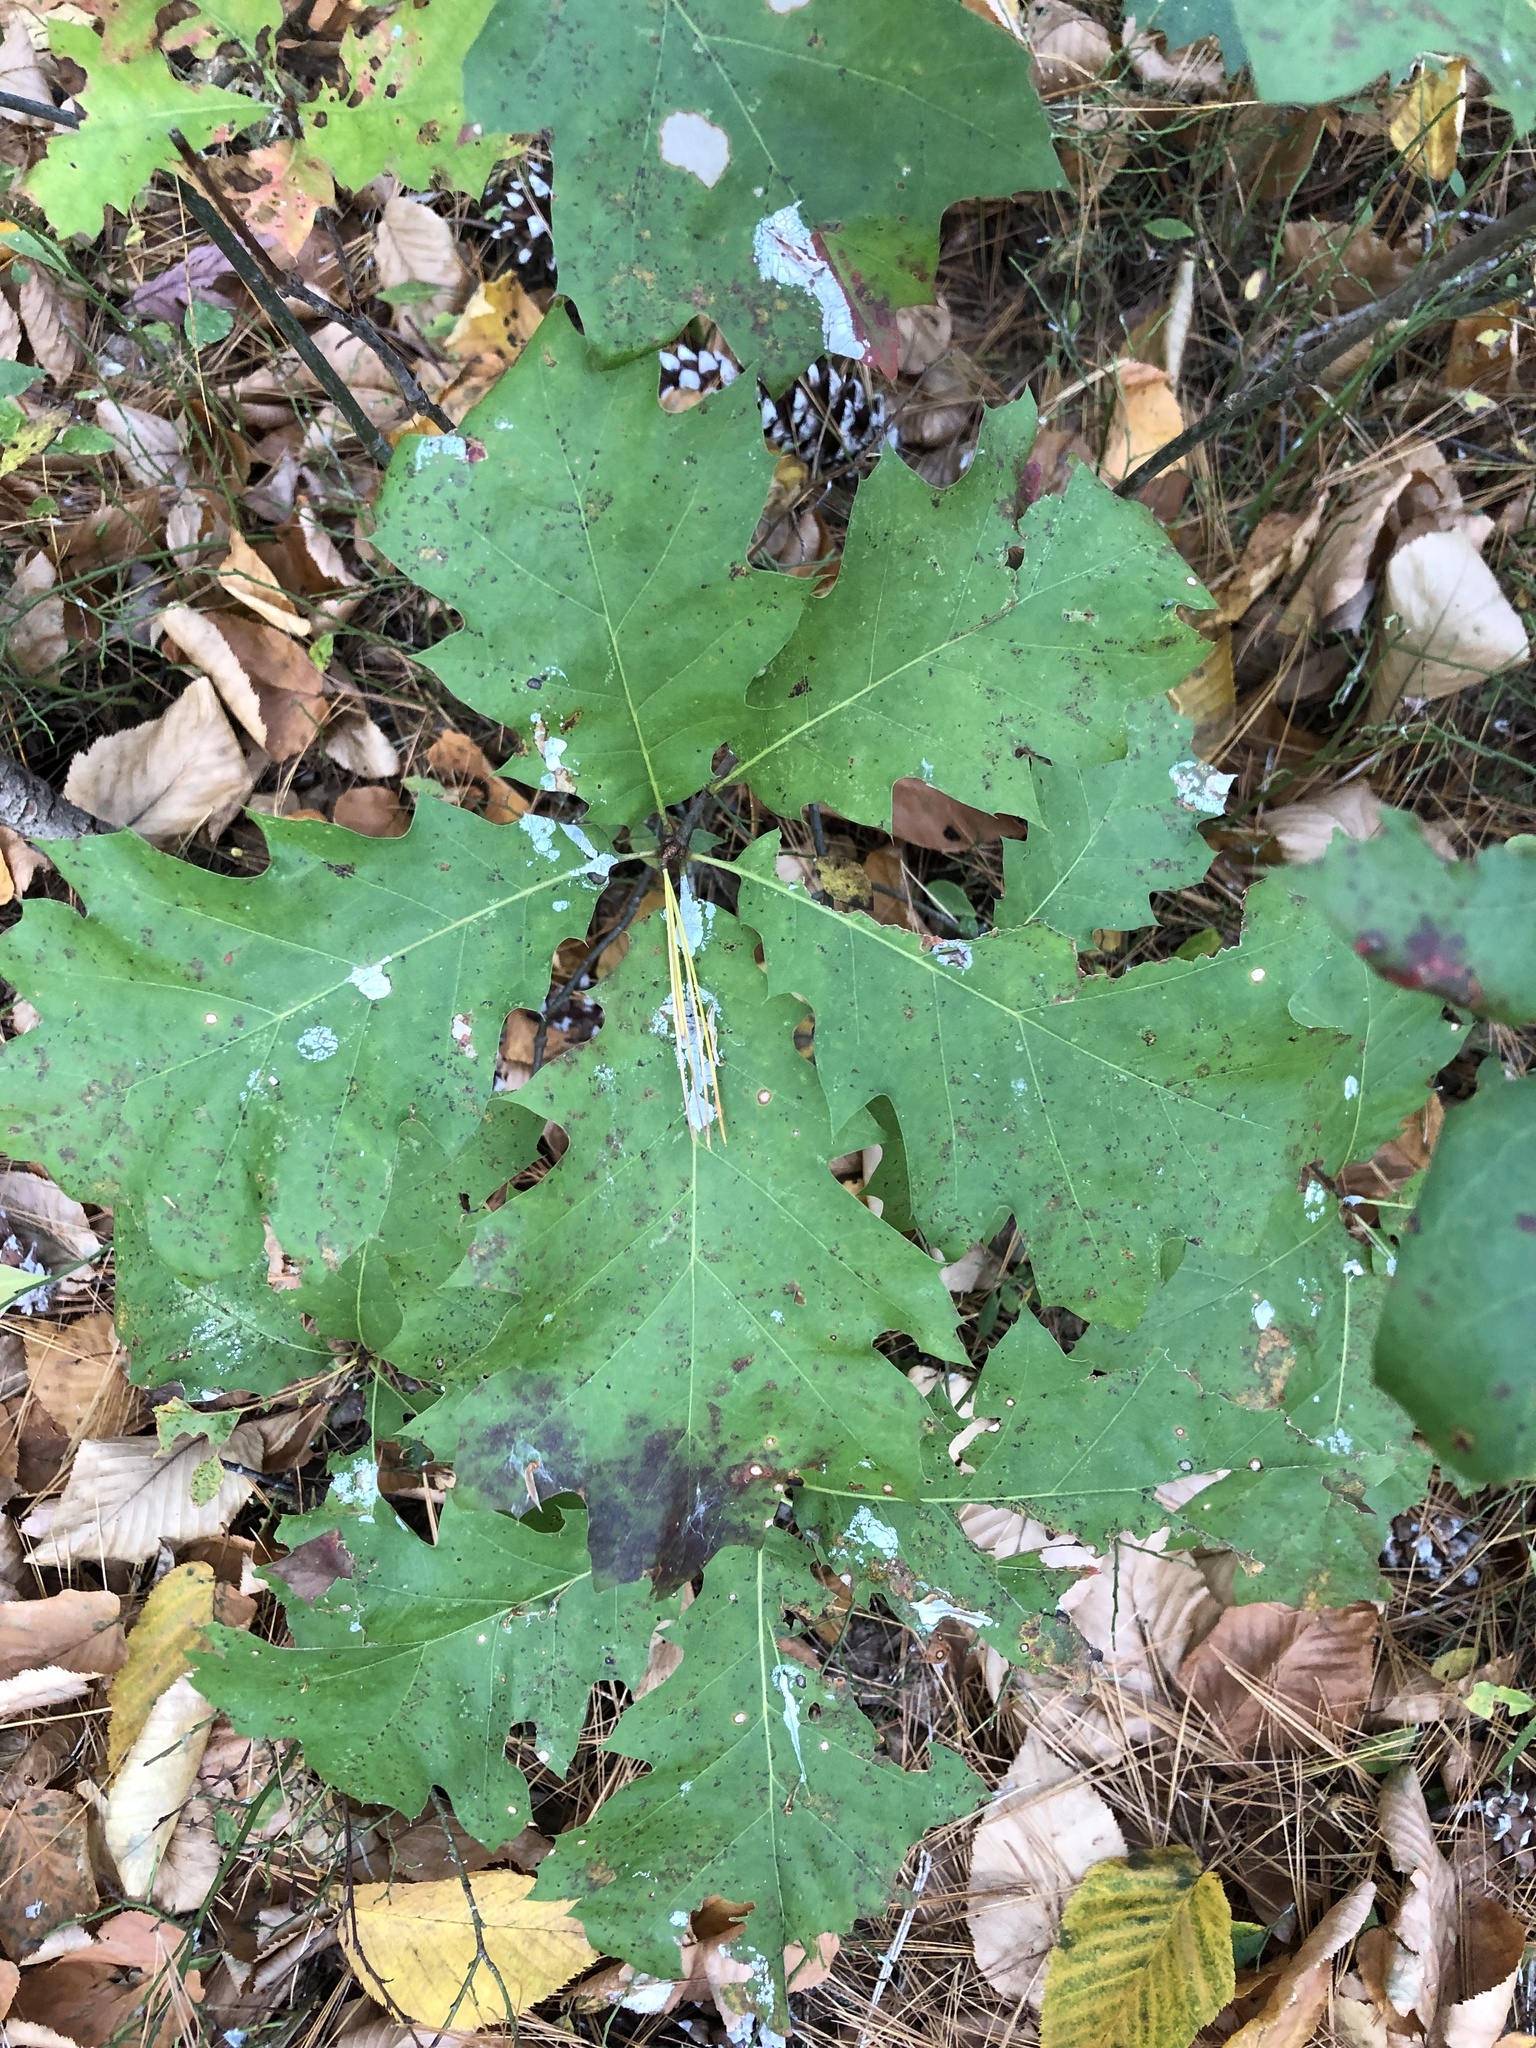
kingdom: Plantae
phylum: Tracheophyta
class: Magnoliopsida
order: Fagales
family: Fagaceae
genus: Quercus
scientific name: Quercus rubra
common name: Red oak
